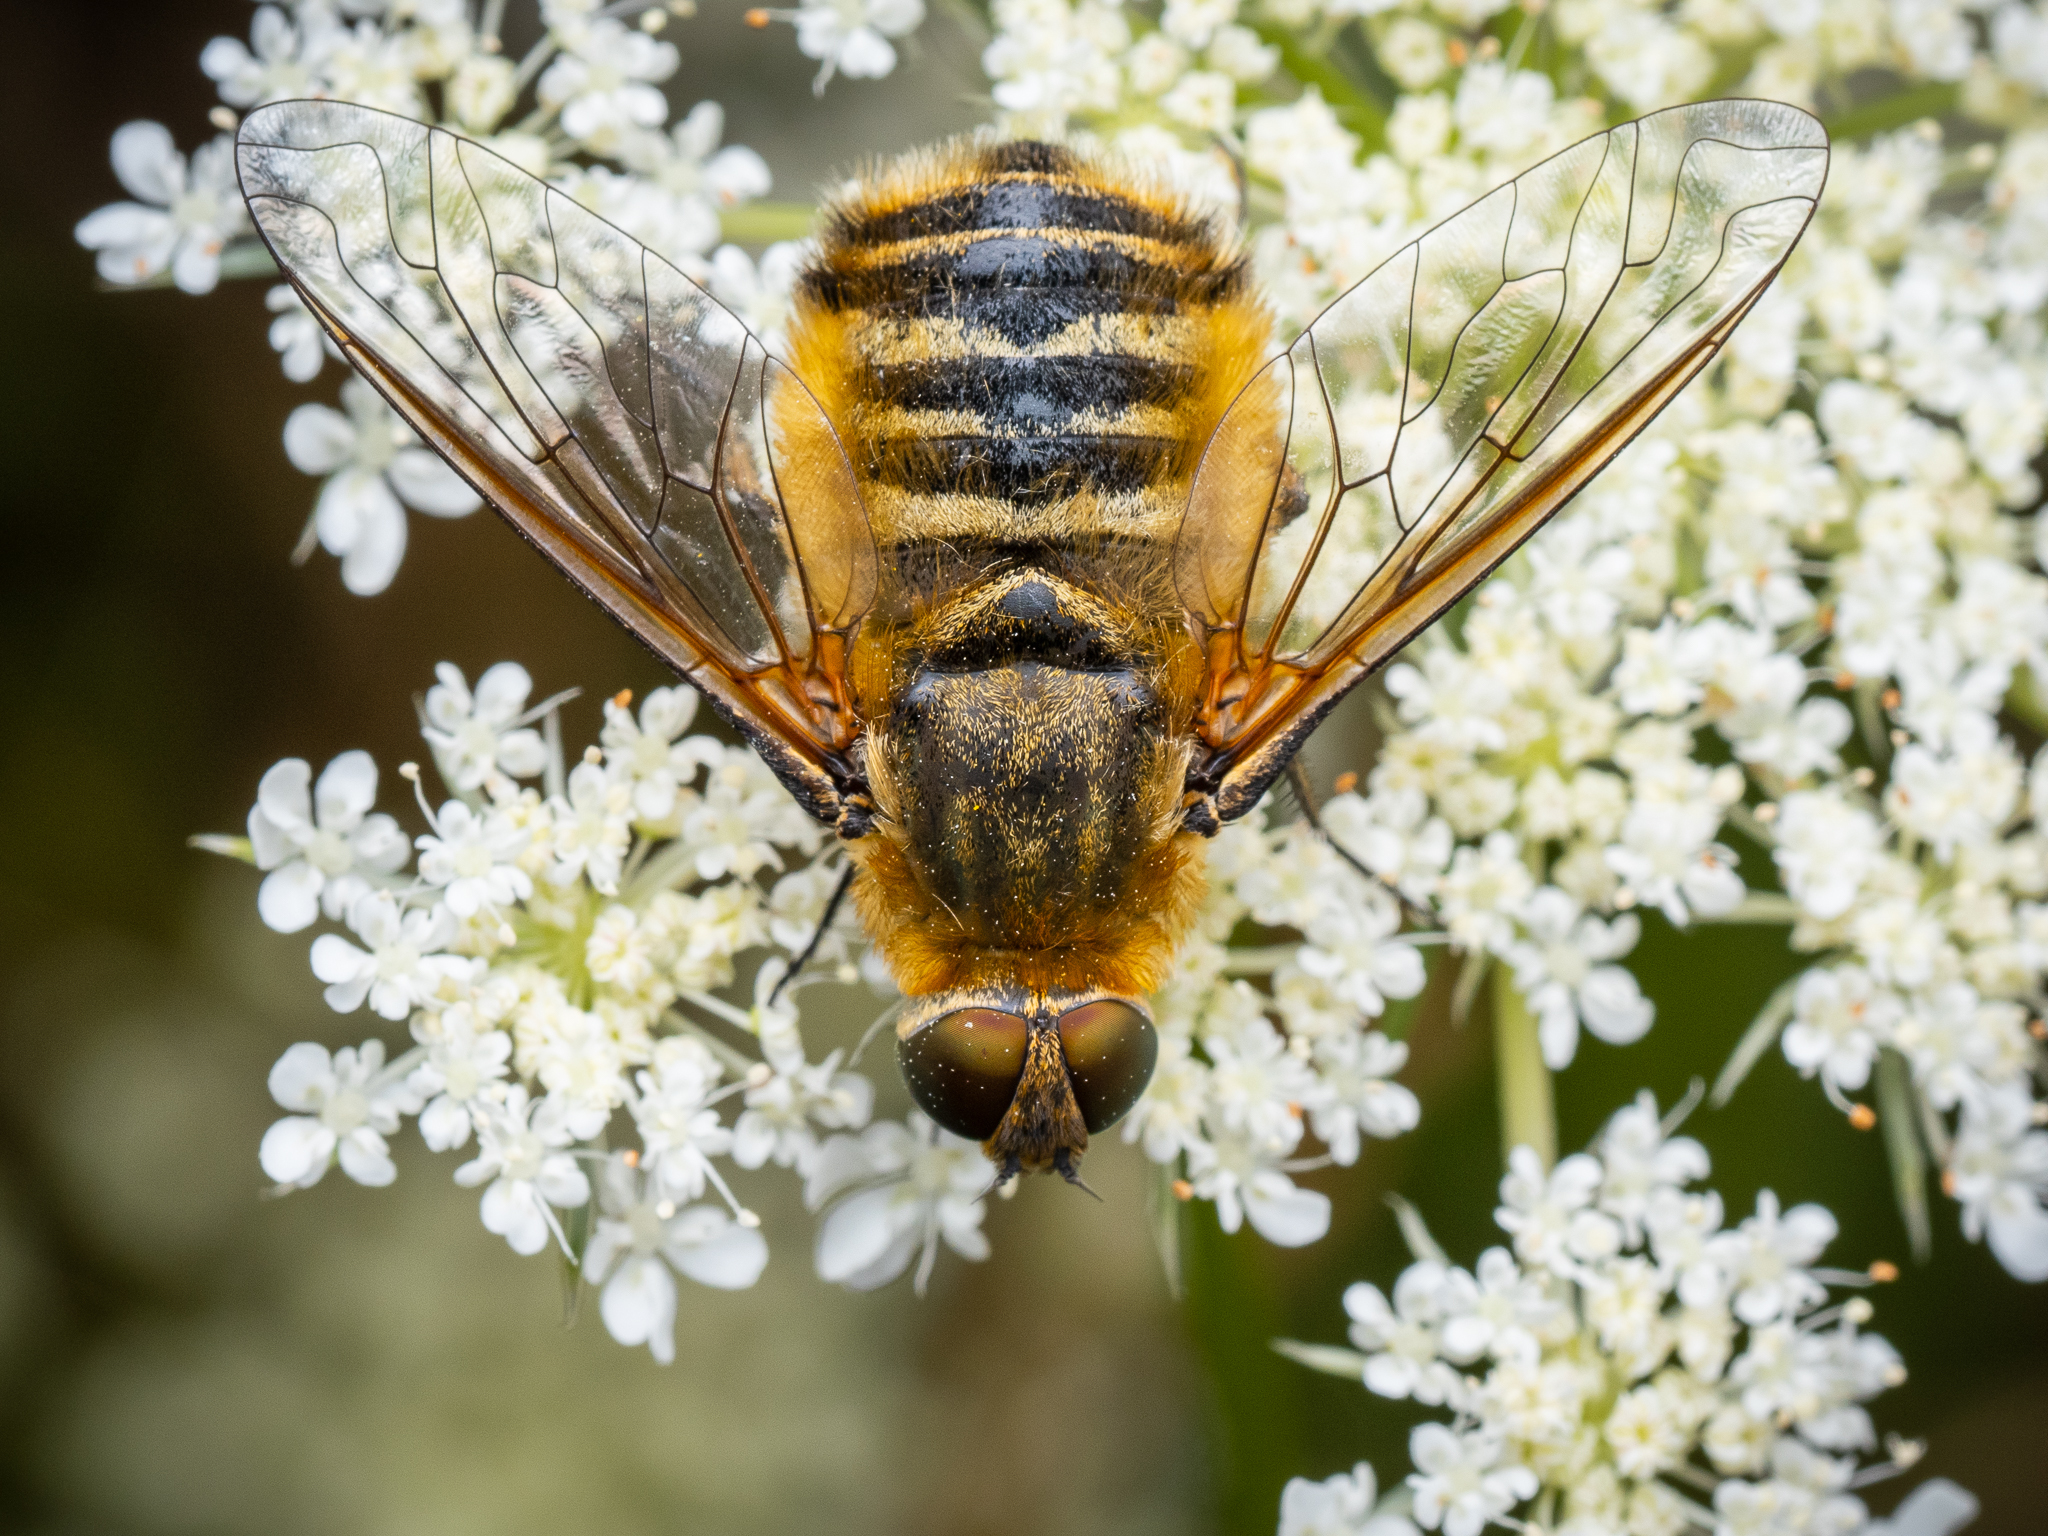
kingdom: Animalia
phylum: Arthropoda
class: Insecta
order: Diptera
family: Bombyliidae
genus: Villa
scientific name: Villa hottentotta
